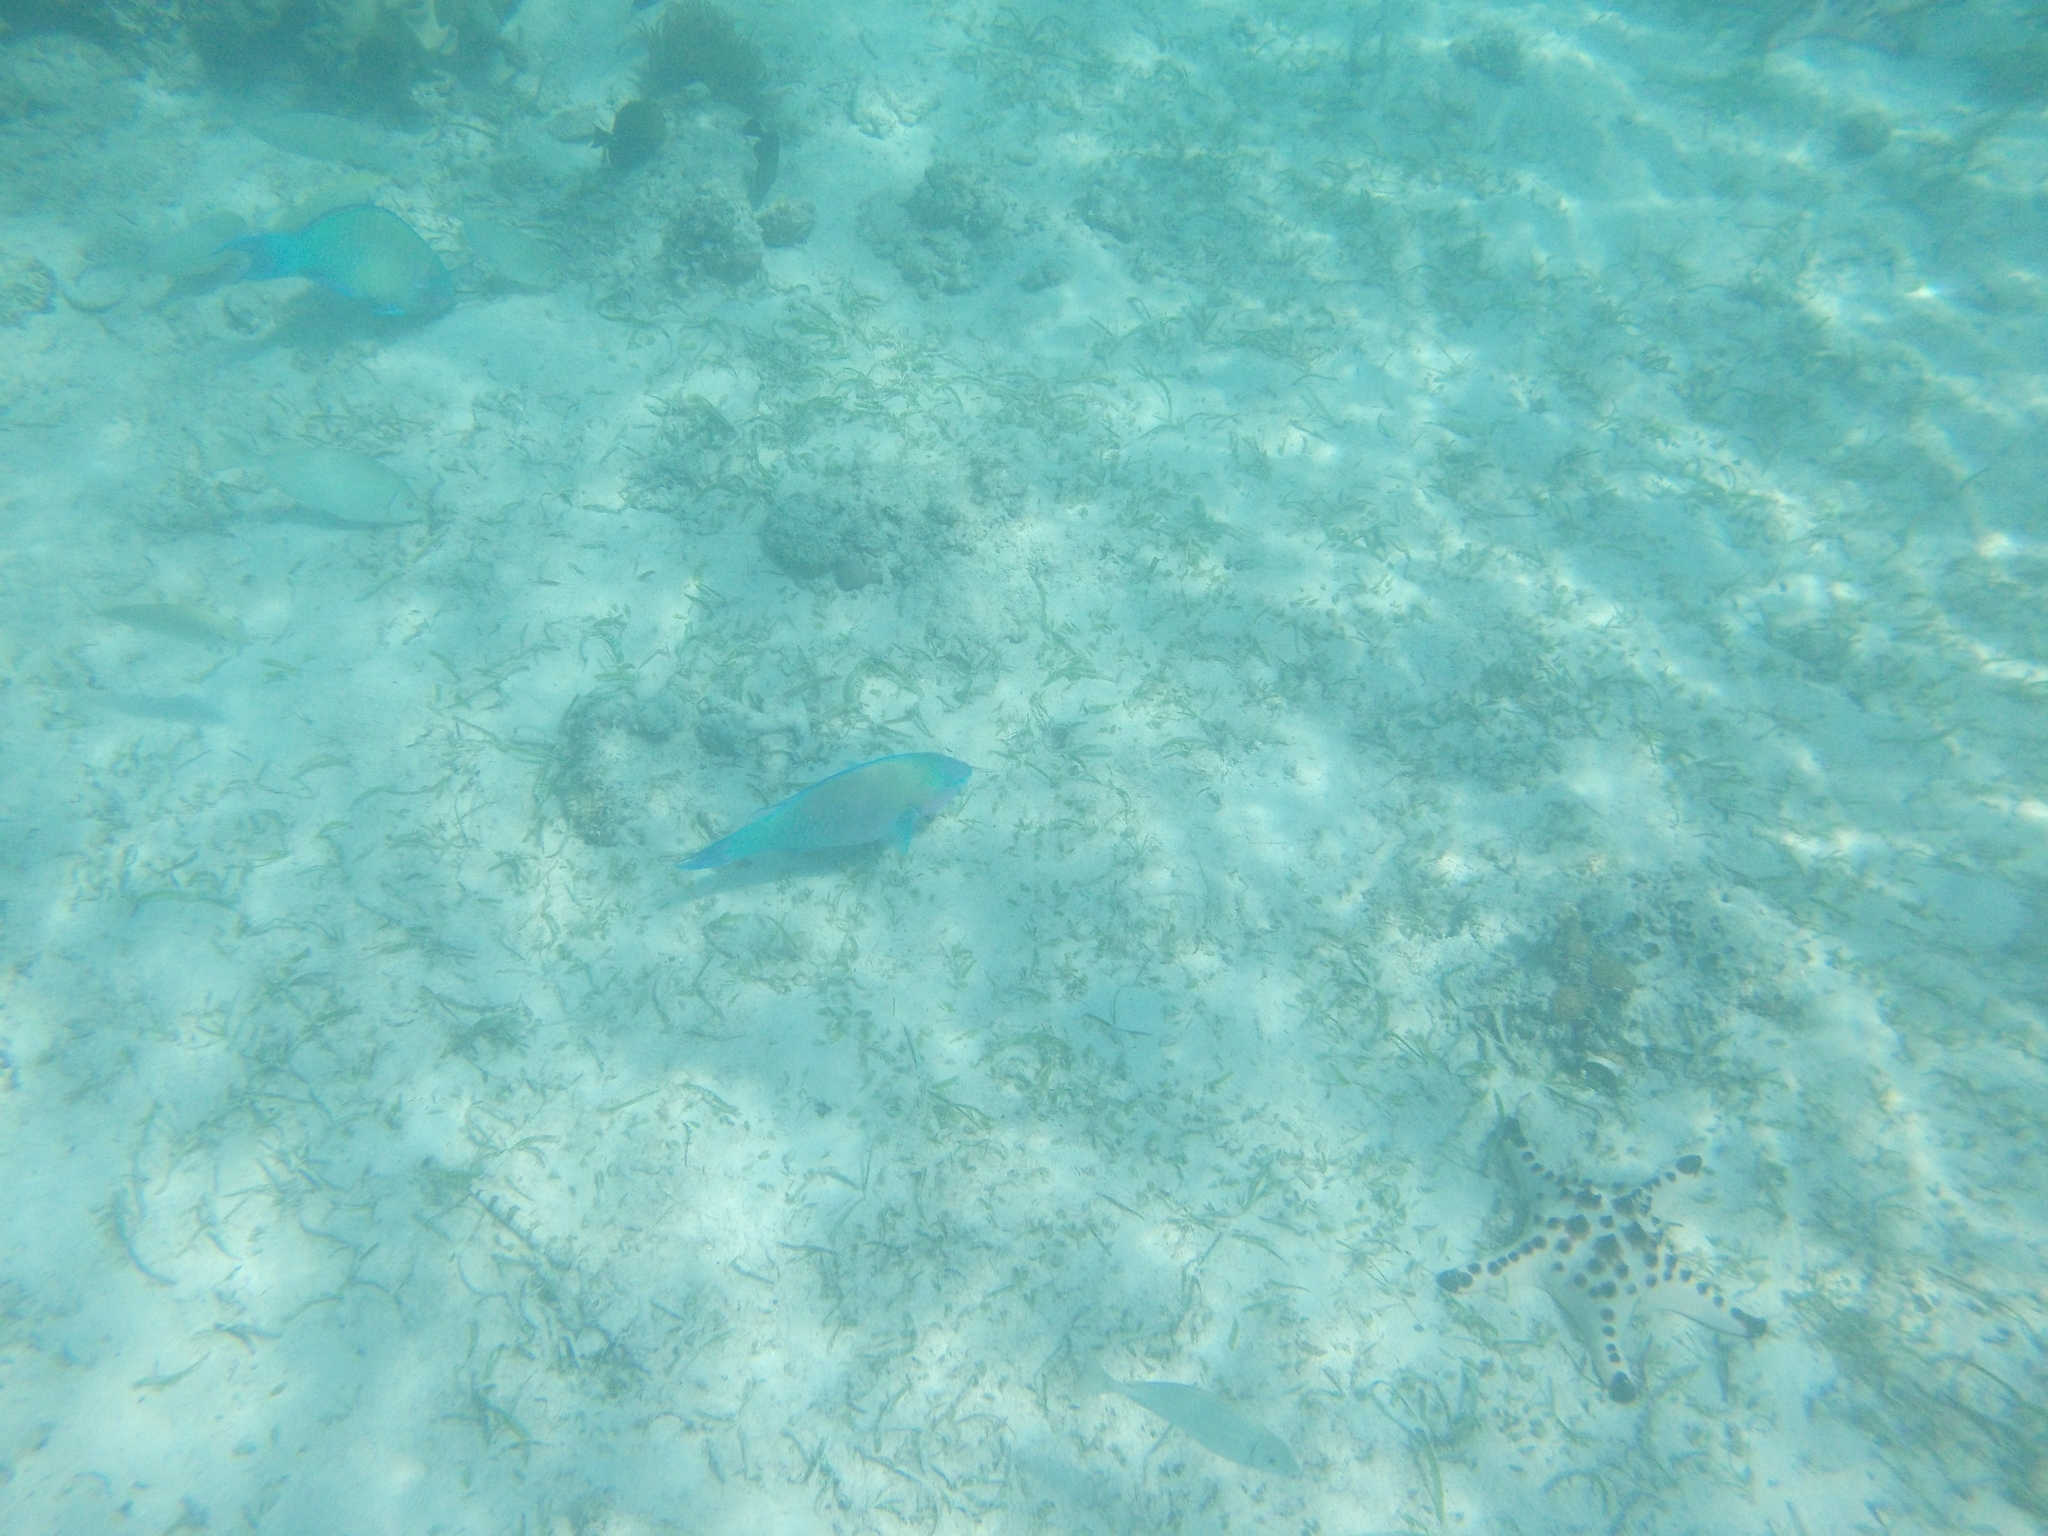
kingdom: Animalia
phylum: Chordata
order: Perciformes
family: Scaridae
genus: Scarus
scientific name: Scarus psittacus
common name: Palenose parrotfish
